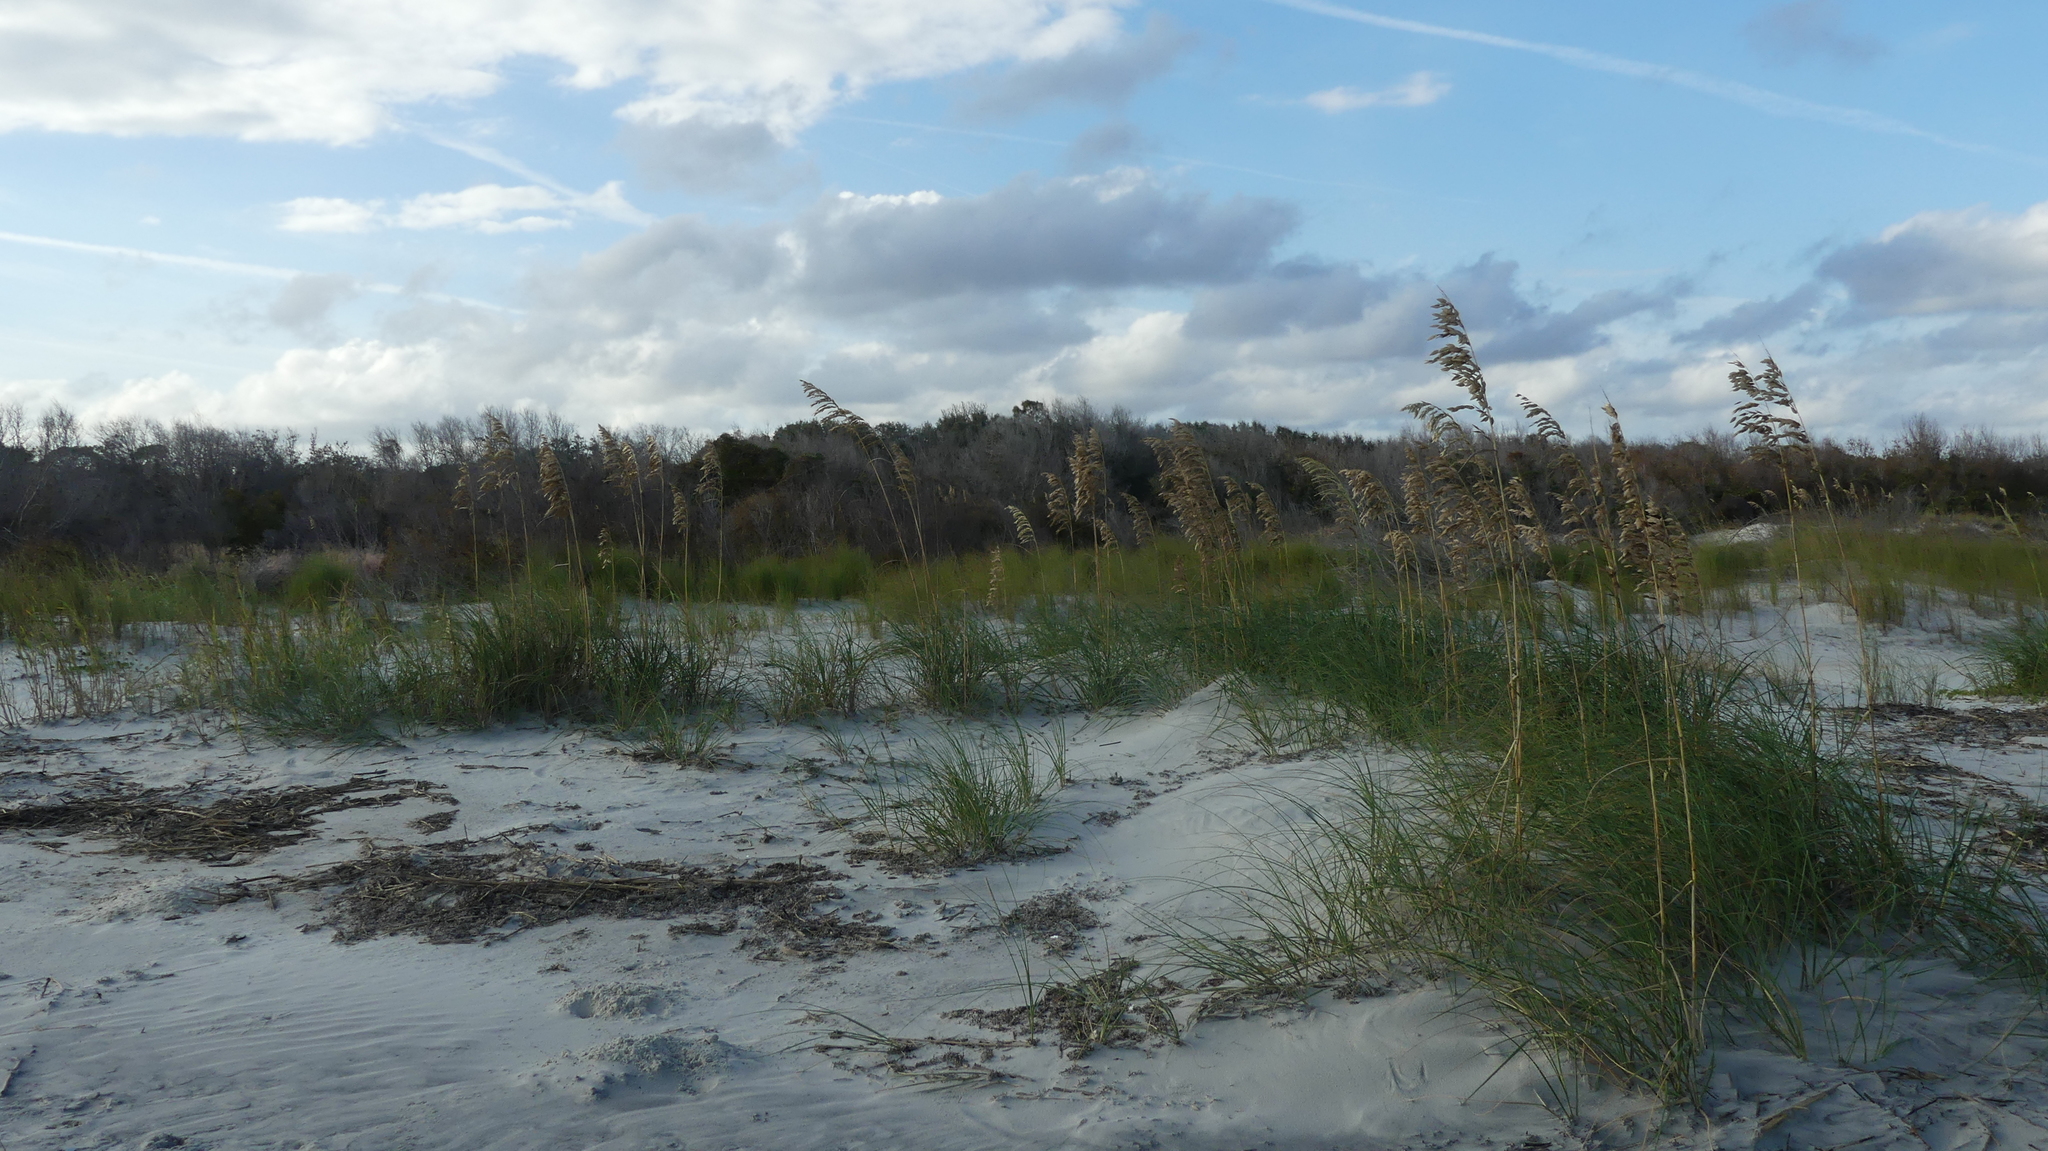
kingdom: Plantae
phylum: Tracheophyta
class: Liliopsida
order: Poales
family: Poaceae
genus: Uniola
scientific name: Uniola paniculata
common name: Seaside-oats
